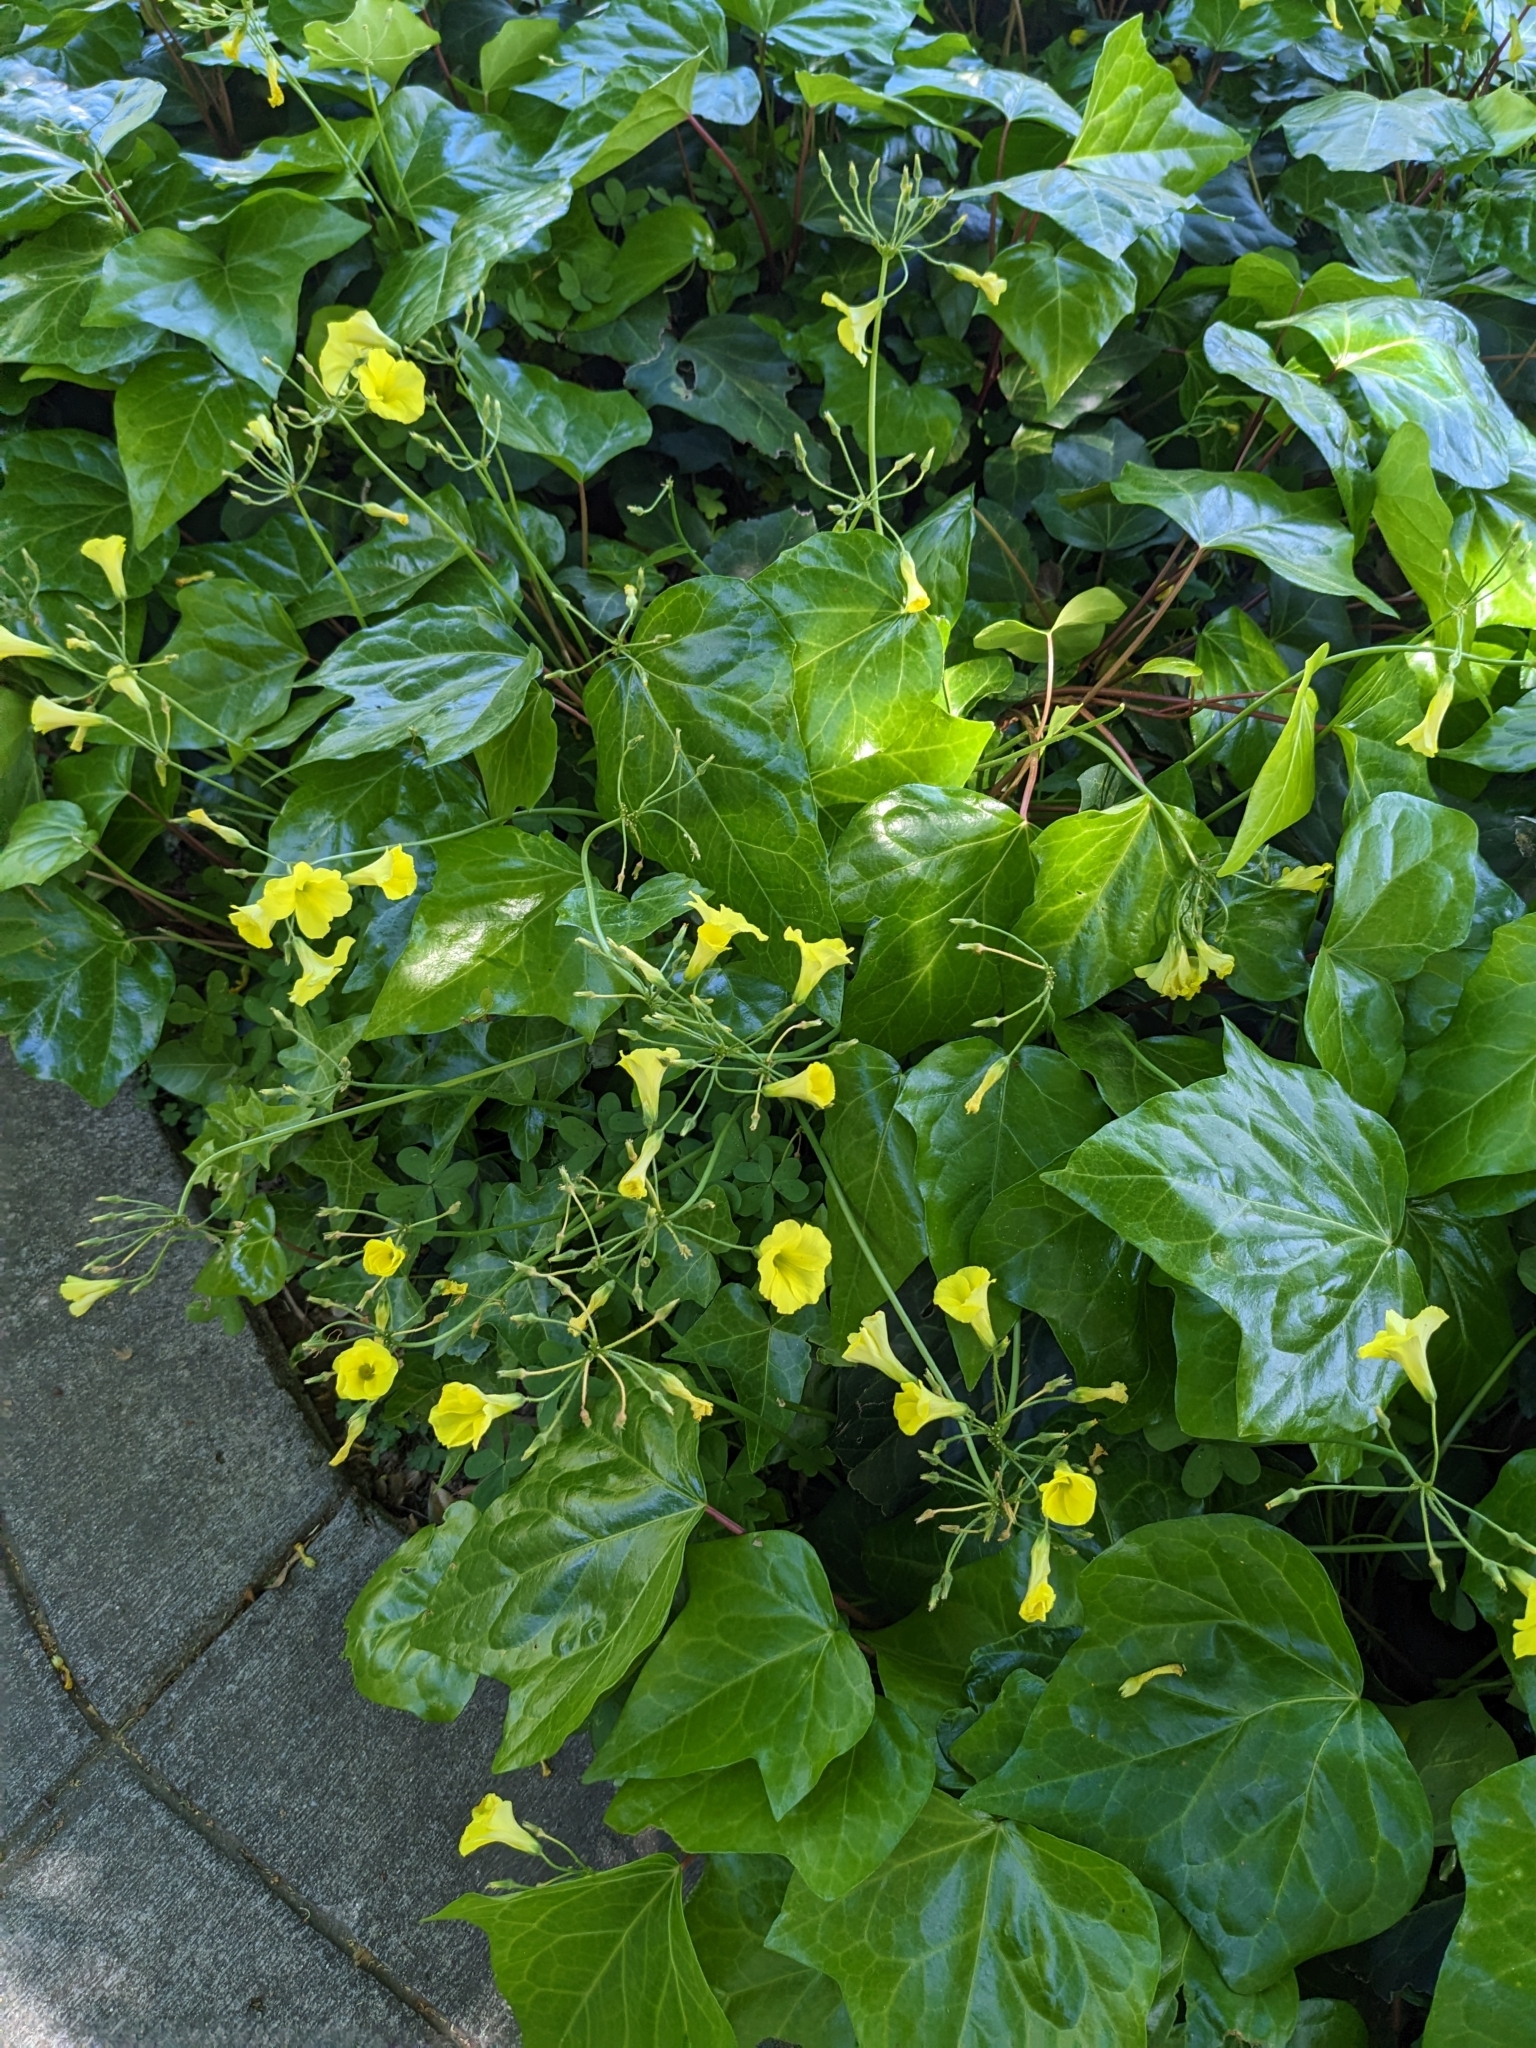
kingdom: Plantae
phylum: Tracheophyta
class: Magnoliopsida
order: Oxalidales
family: Oxalidaceae
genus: Oxalis
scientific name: Oxalis pes-caprae
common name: Bermuda-buttercup
